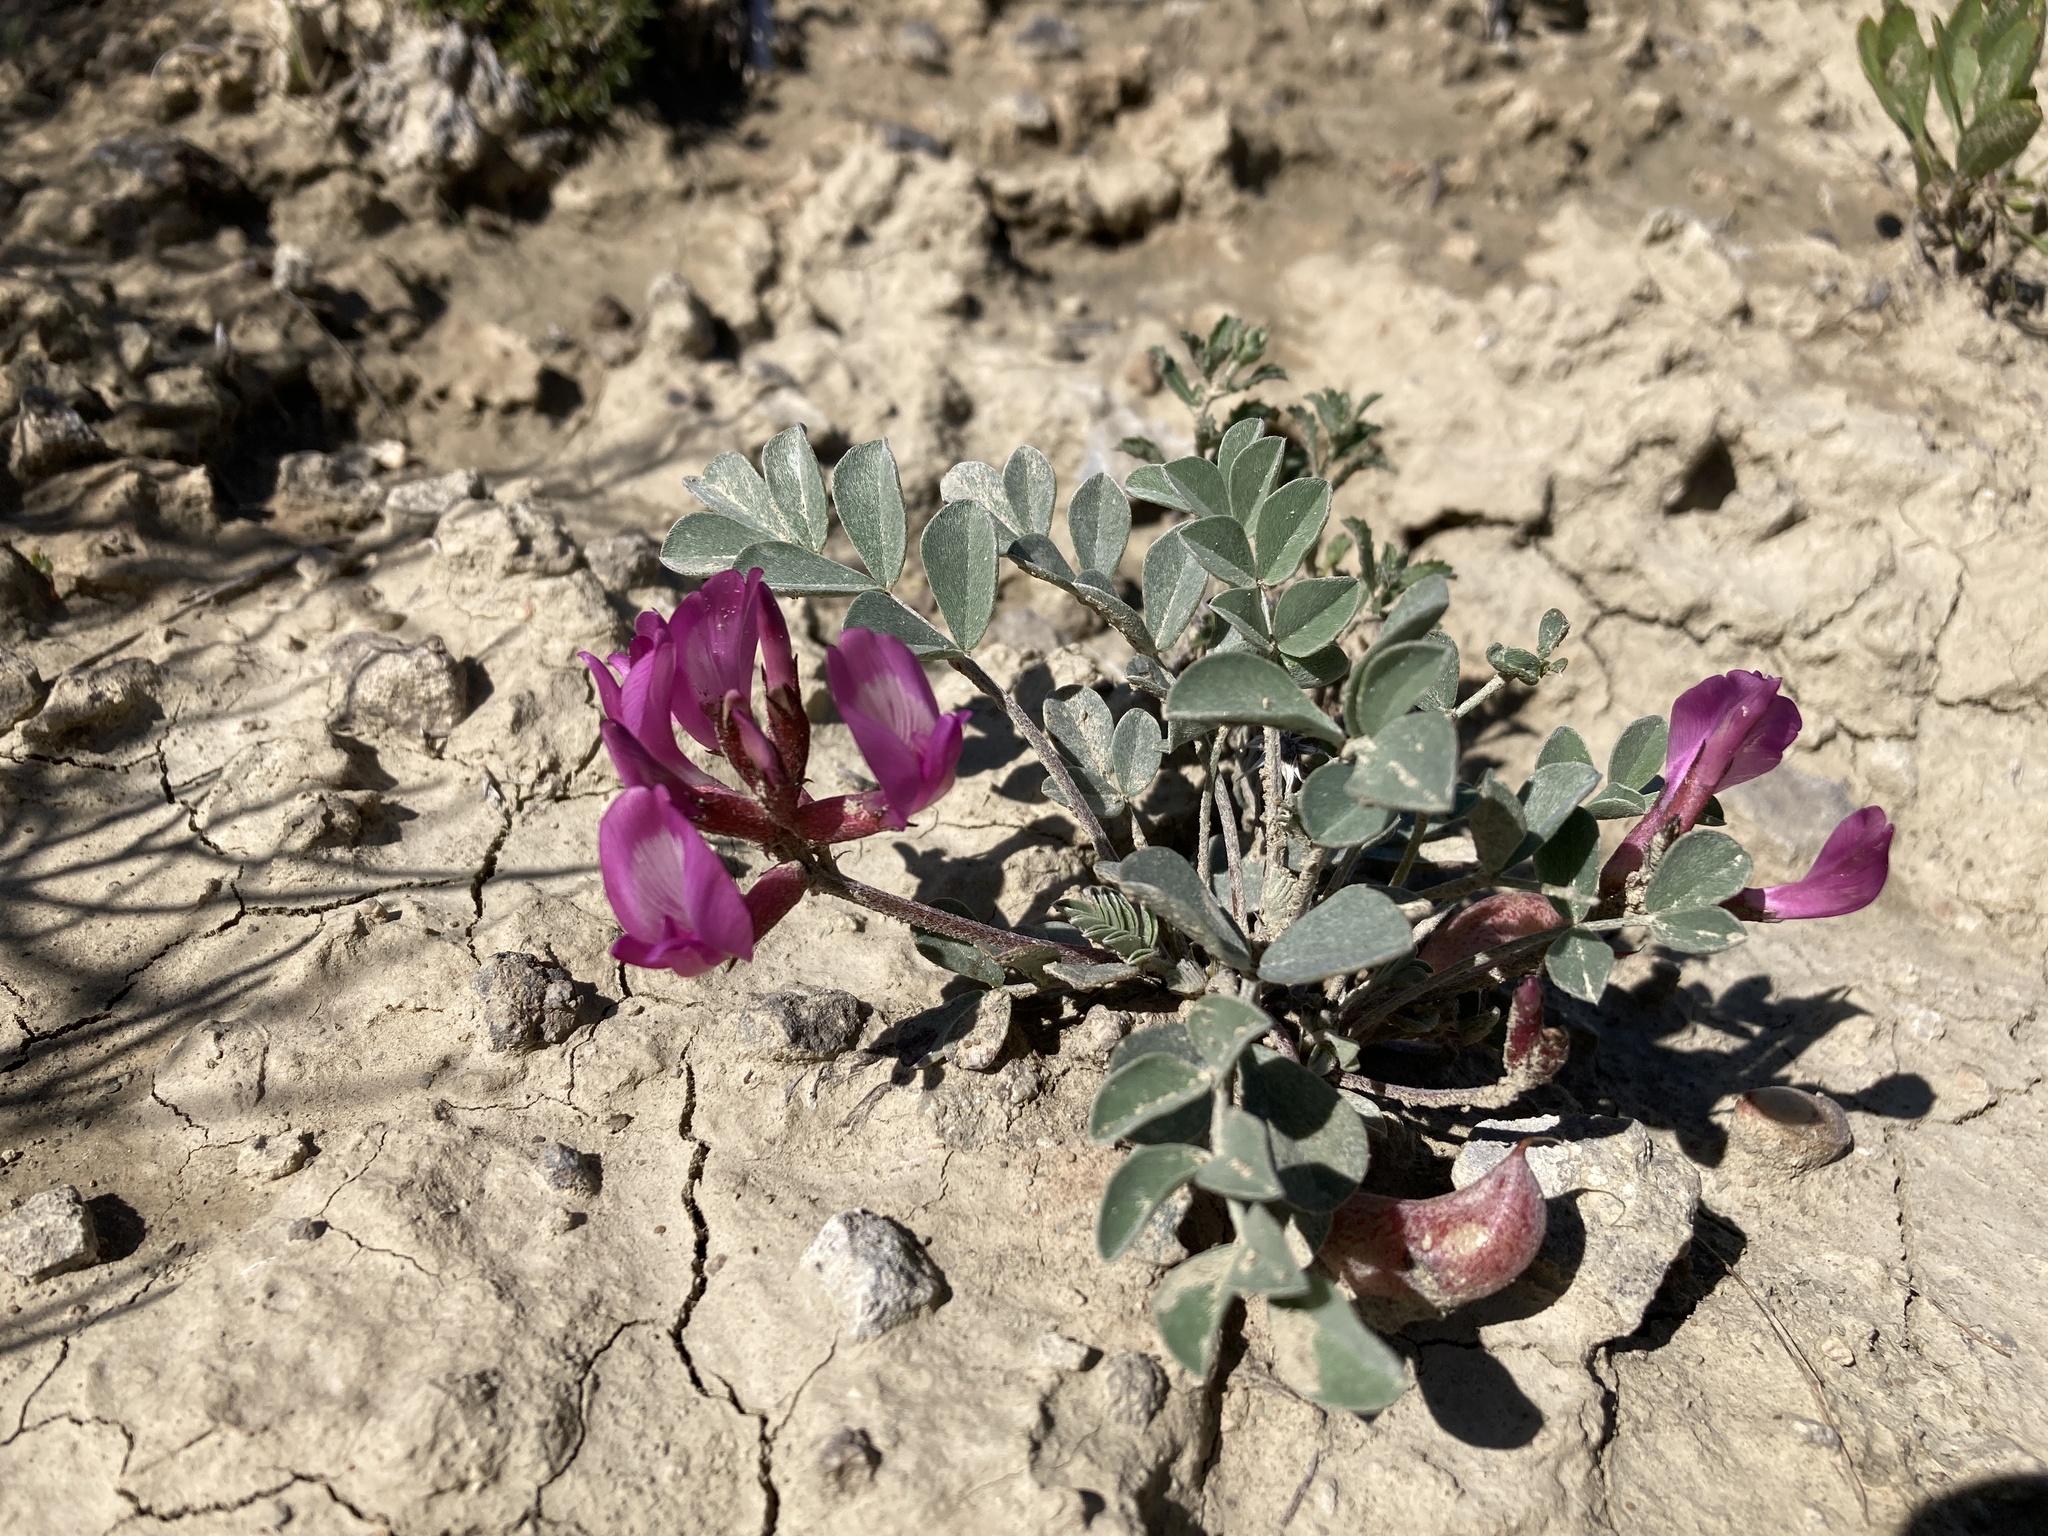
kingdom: Plantae
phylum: Tracheophyta
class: Magnoliopsida
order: Fabales
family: Fabaceae
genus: Astragalus
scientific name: Astragalus chamaeleuce
